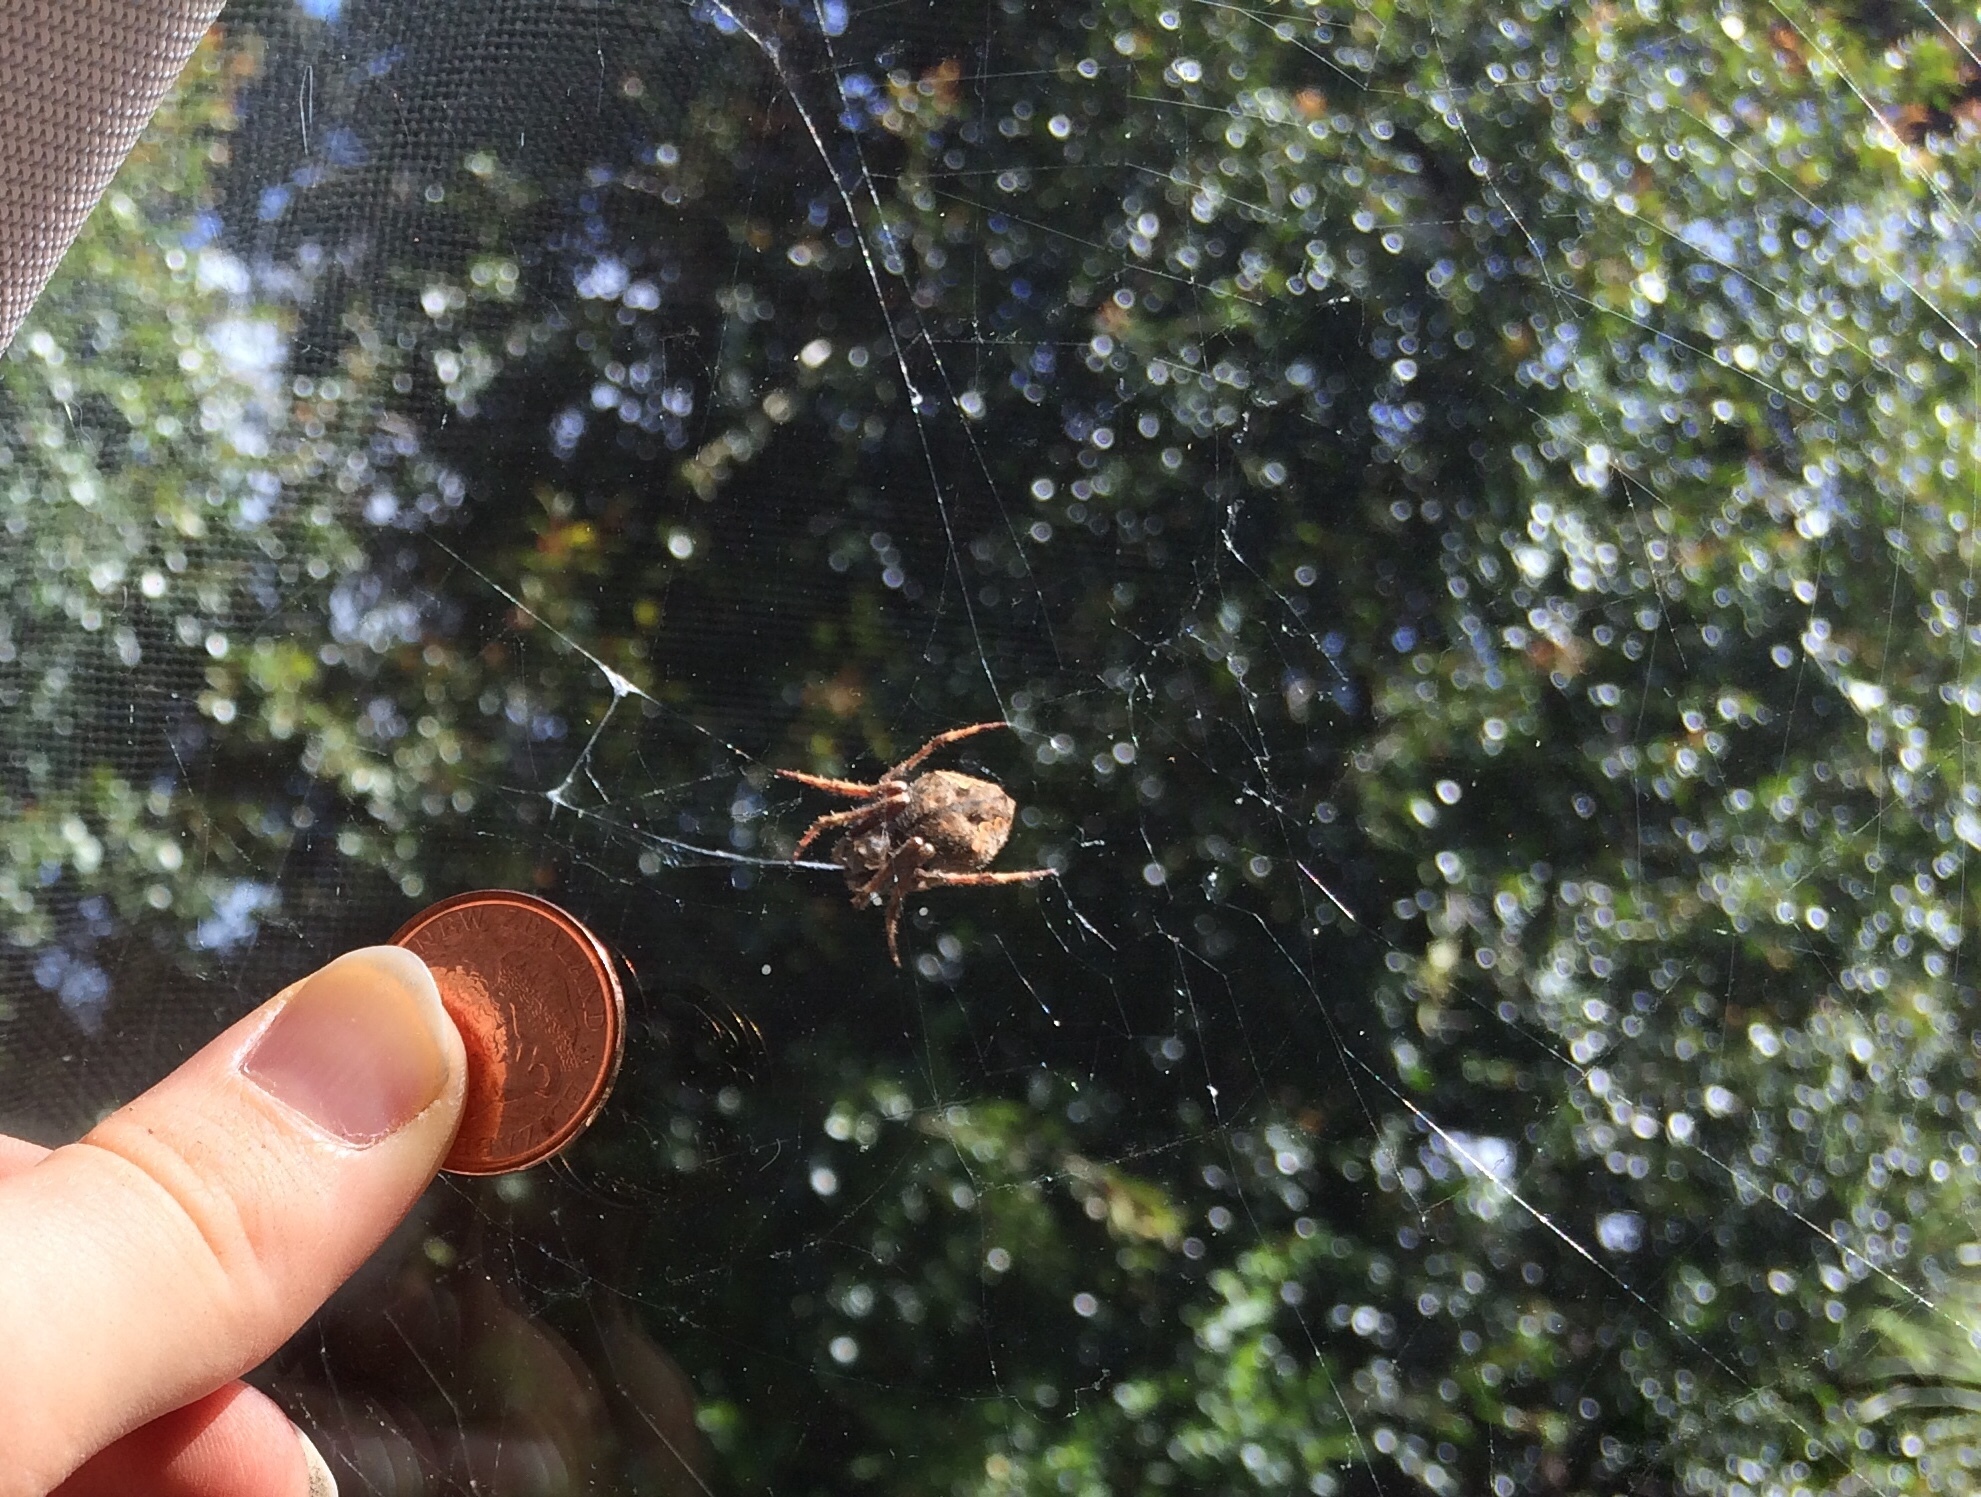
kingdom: Animalia
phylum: Arthropoda
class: Arachnida
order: Araneae
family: Araneidae
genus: Eriophora
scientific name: Eriophora pustulosa
